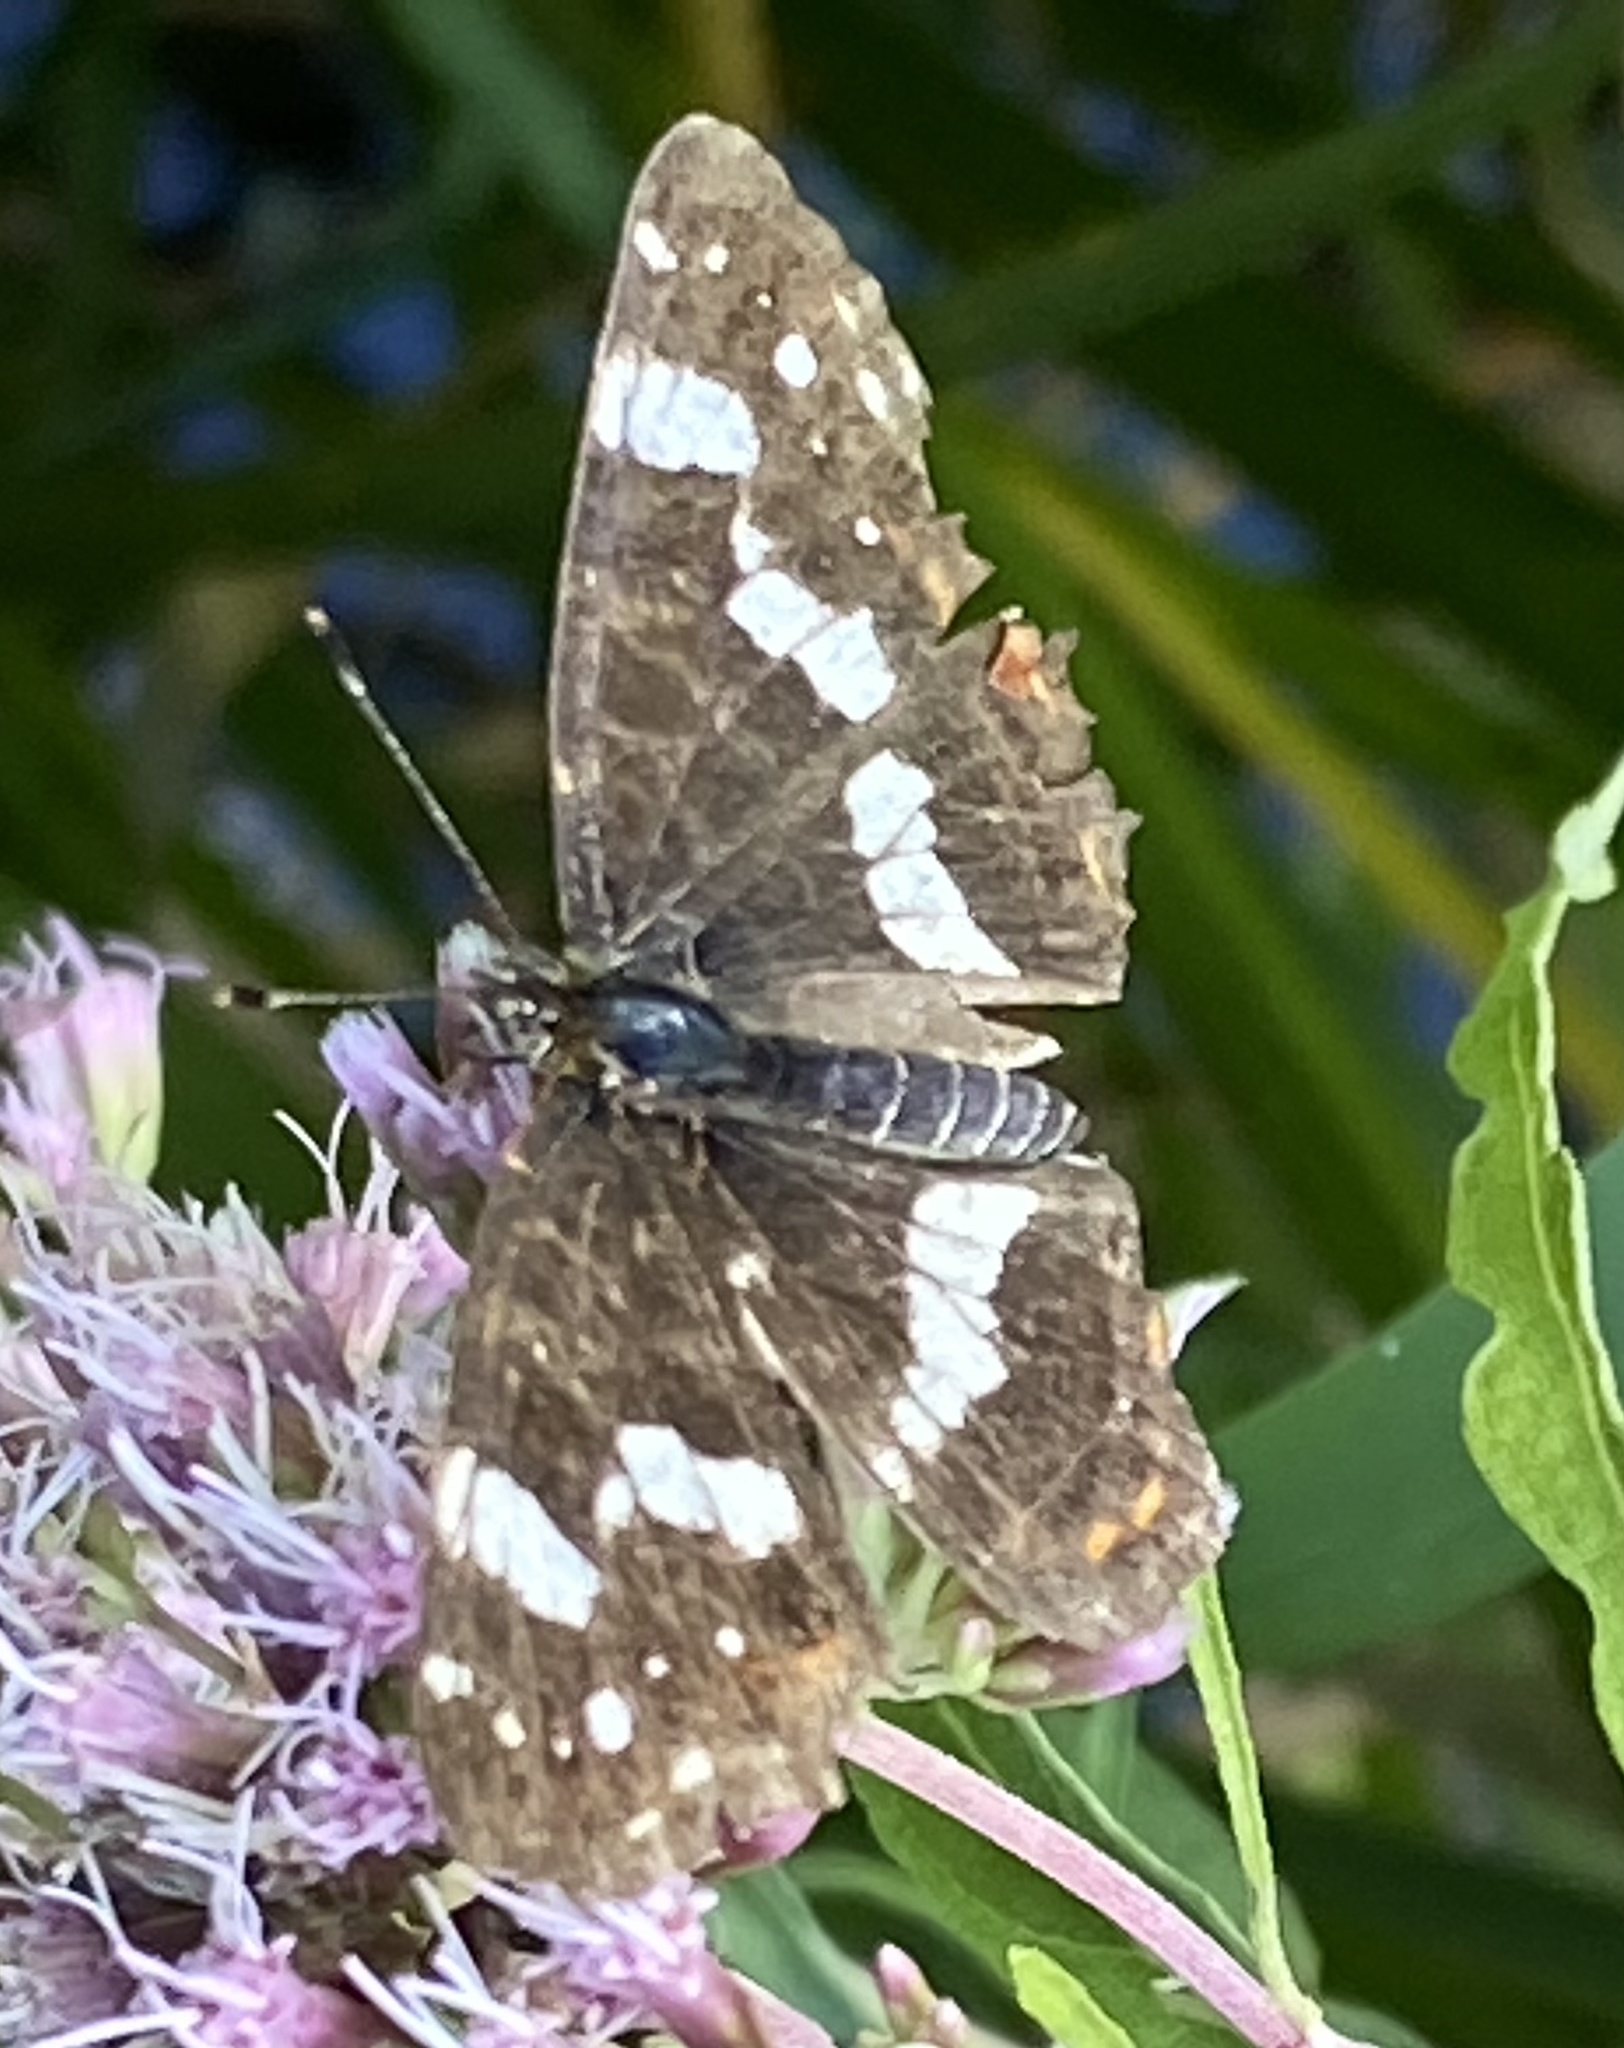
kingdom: Animalia
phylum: Arthropoda
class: Insecta
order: Lepidoptera
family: Nymphalidae
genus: Araschnia
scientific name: Araschnia levana
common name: Map butterfly
